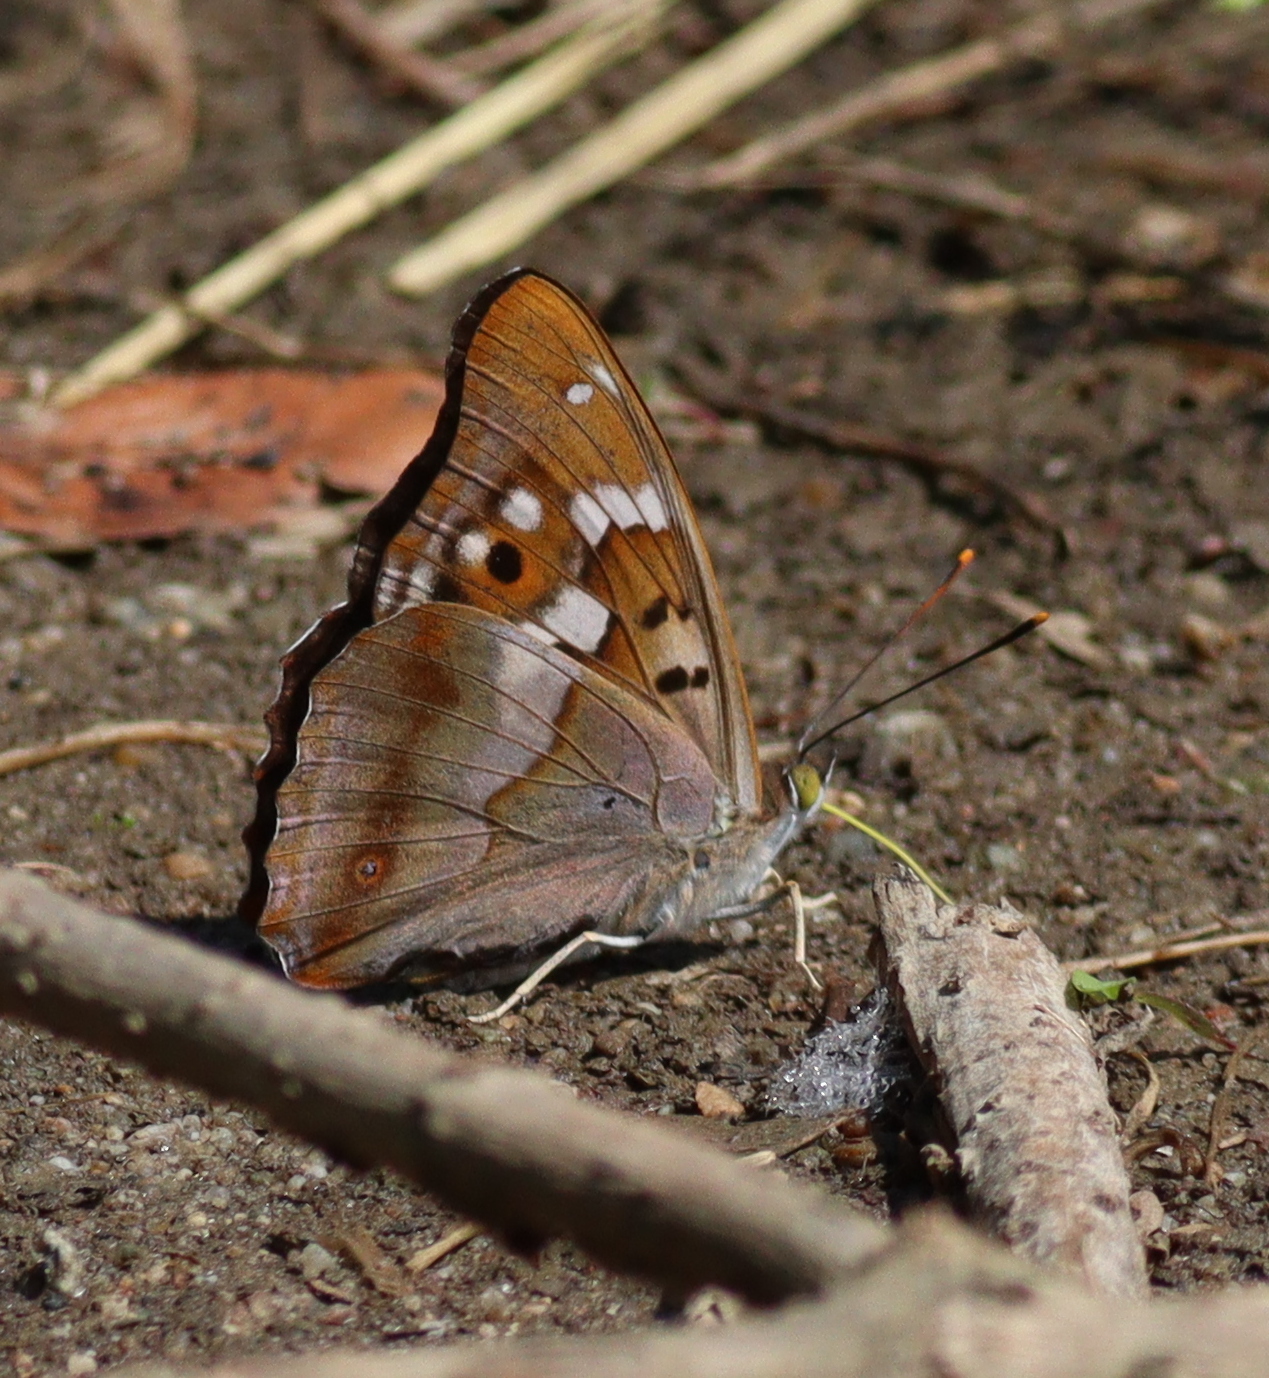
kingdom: Animalia
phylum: Arthropoda
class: Insecta
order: Lepidoptera
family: Nymphalidae
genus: Apatura
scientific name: Apatura ilia
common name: Lesser purple emperor
